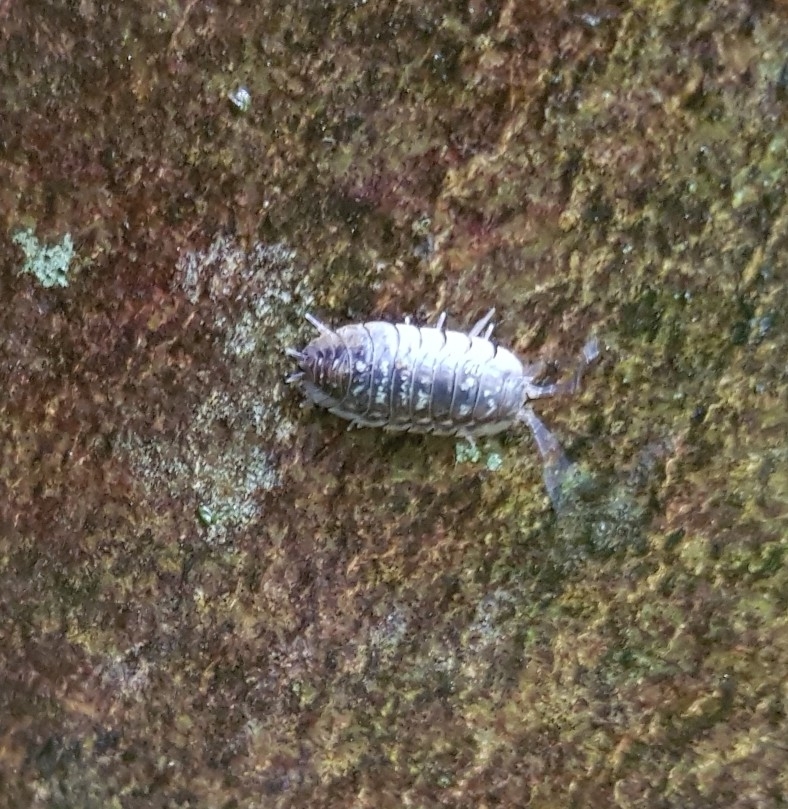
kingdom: Animalia
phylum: Arthropoda
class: Malacostraca
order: Isopoda
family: Oniscidae
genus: Oniscus
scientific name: Oniscus asellus
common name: Common shiny woodlouse
